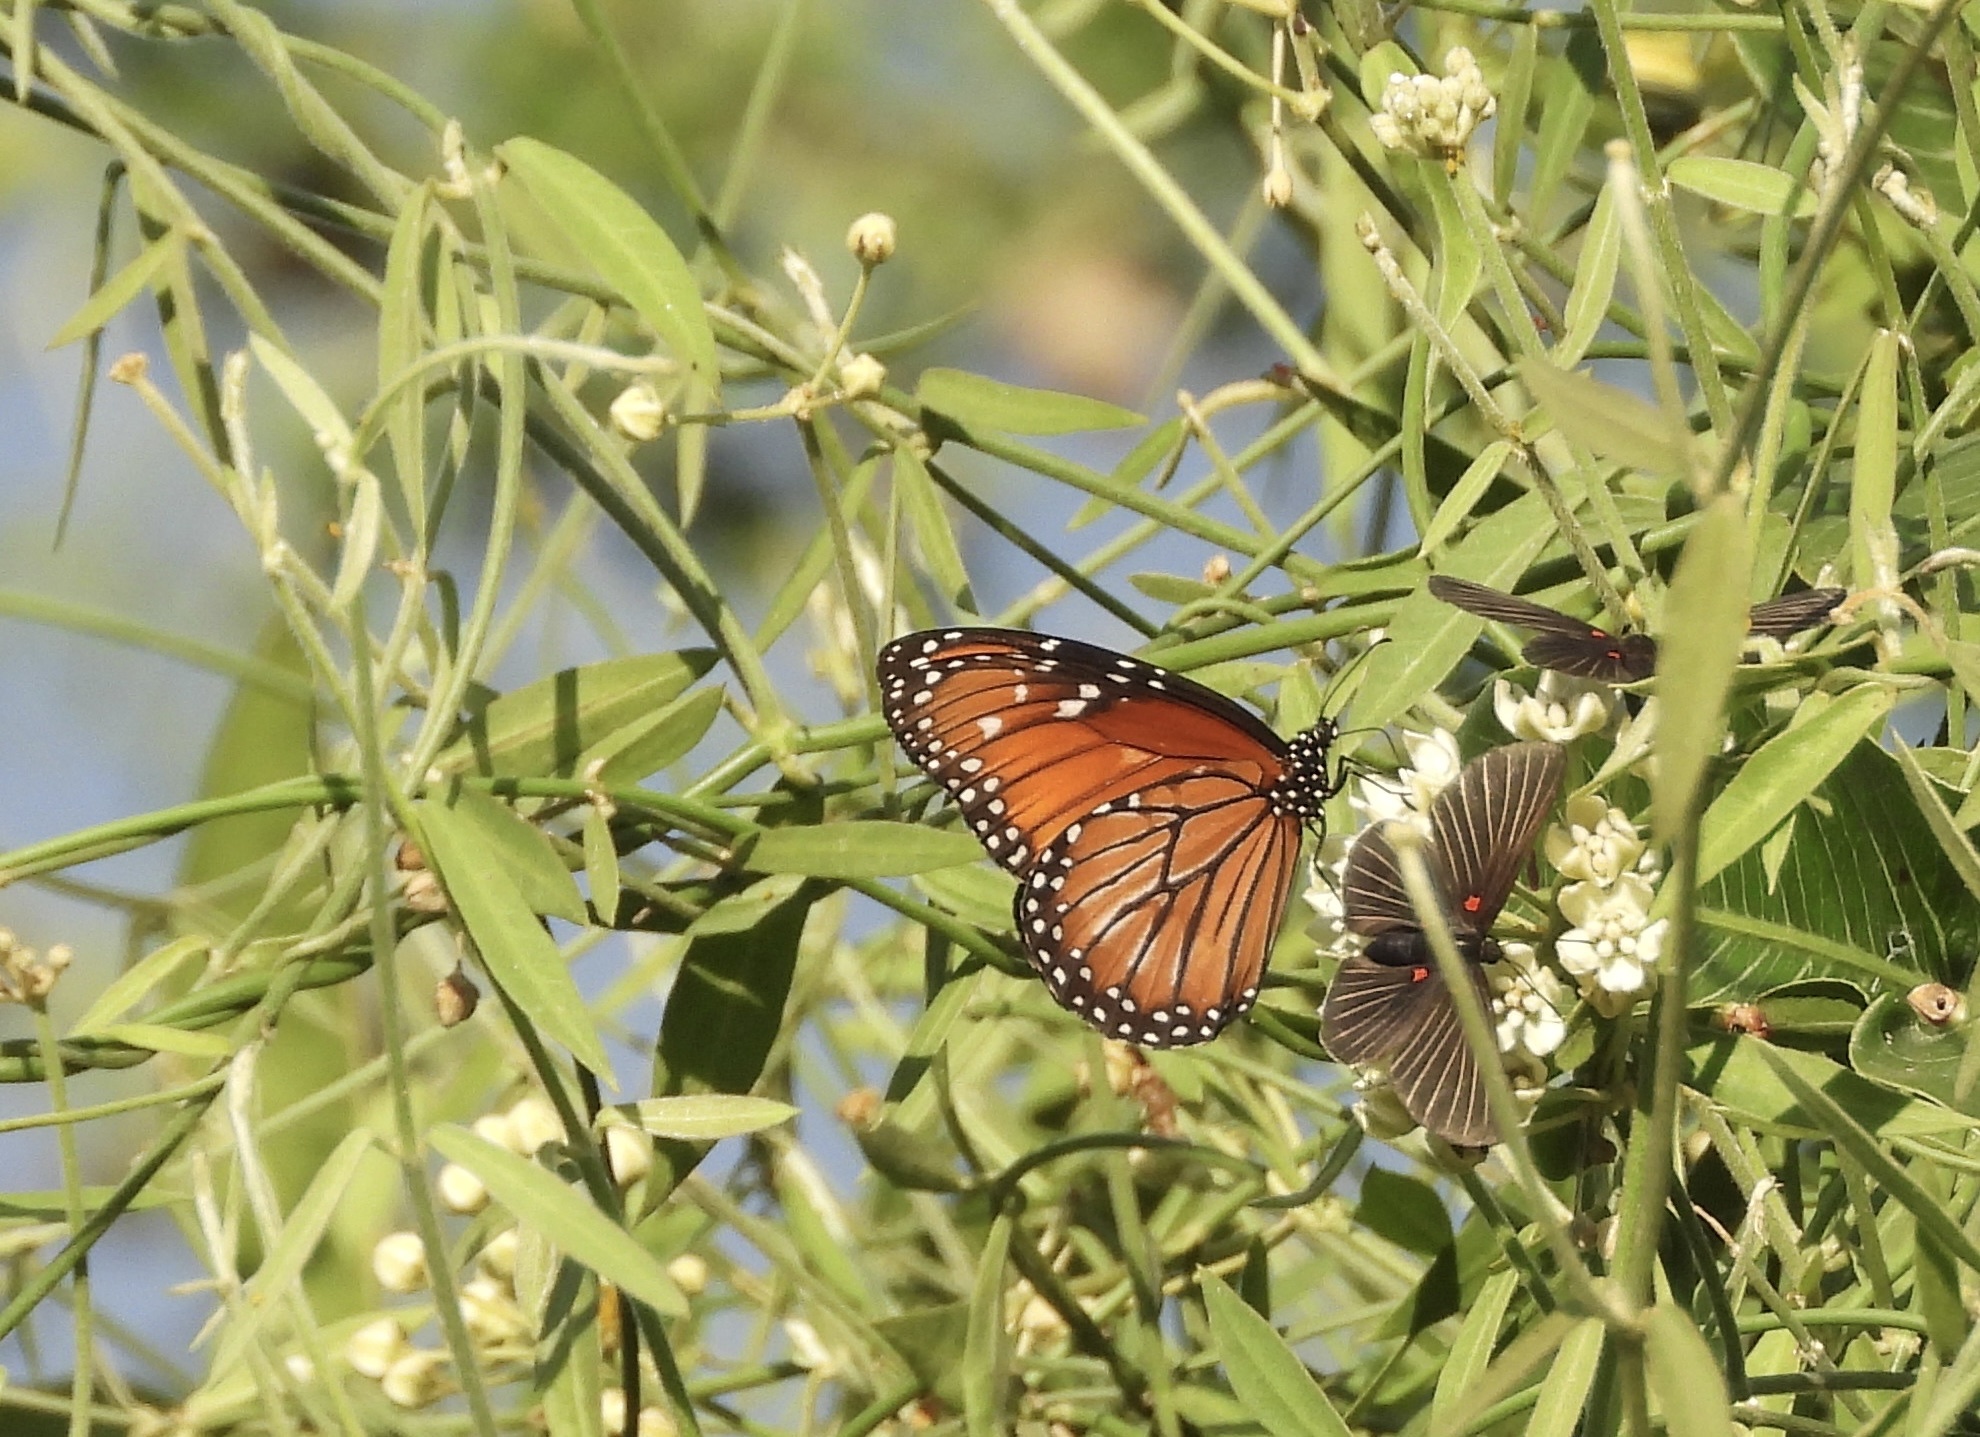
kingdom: Animalia
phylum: Arthropoda
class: Insecta
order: Lepidoptera
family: Nymphalidae
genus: Danaus
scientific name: Danaus eresimus
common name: Soldier
